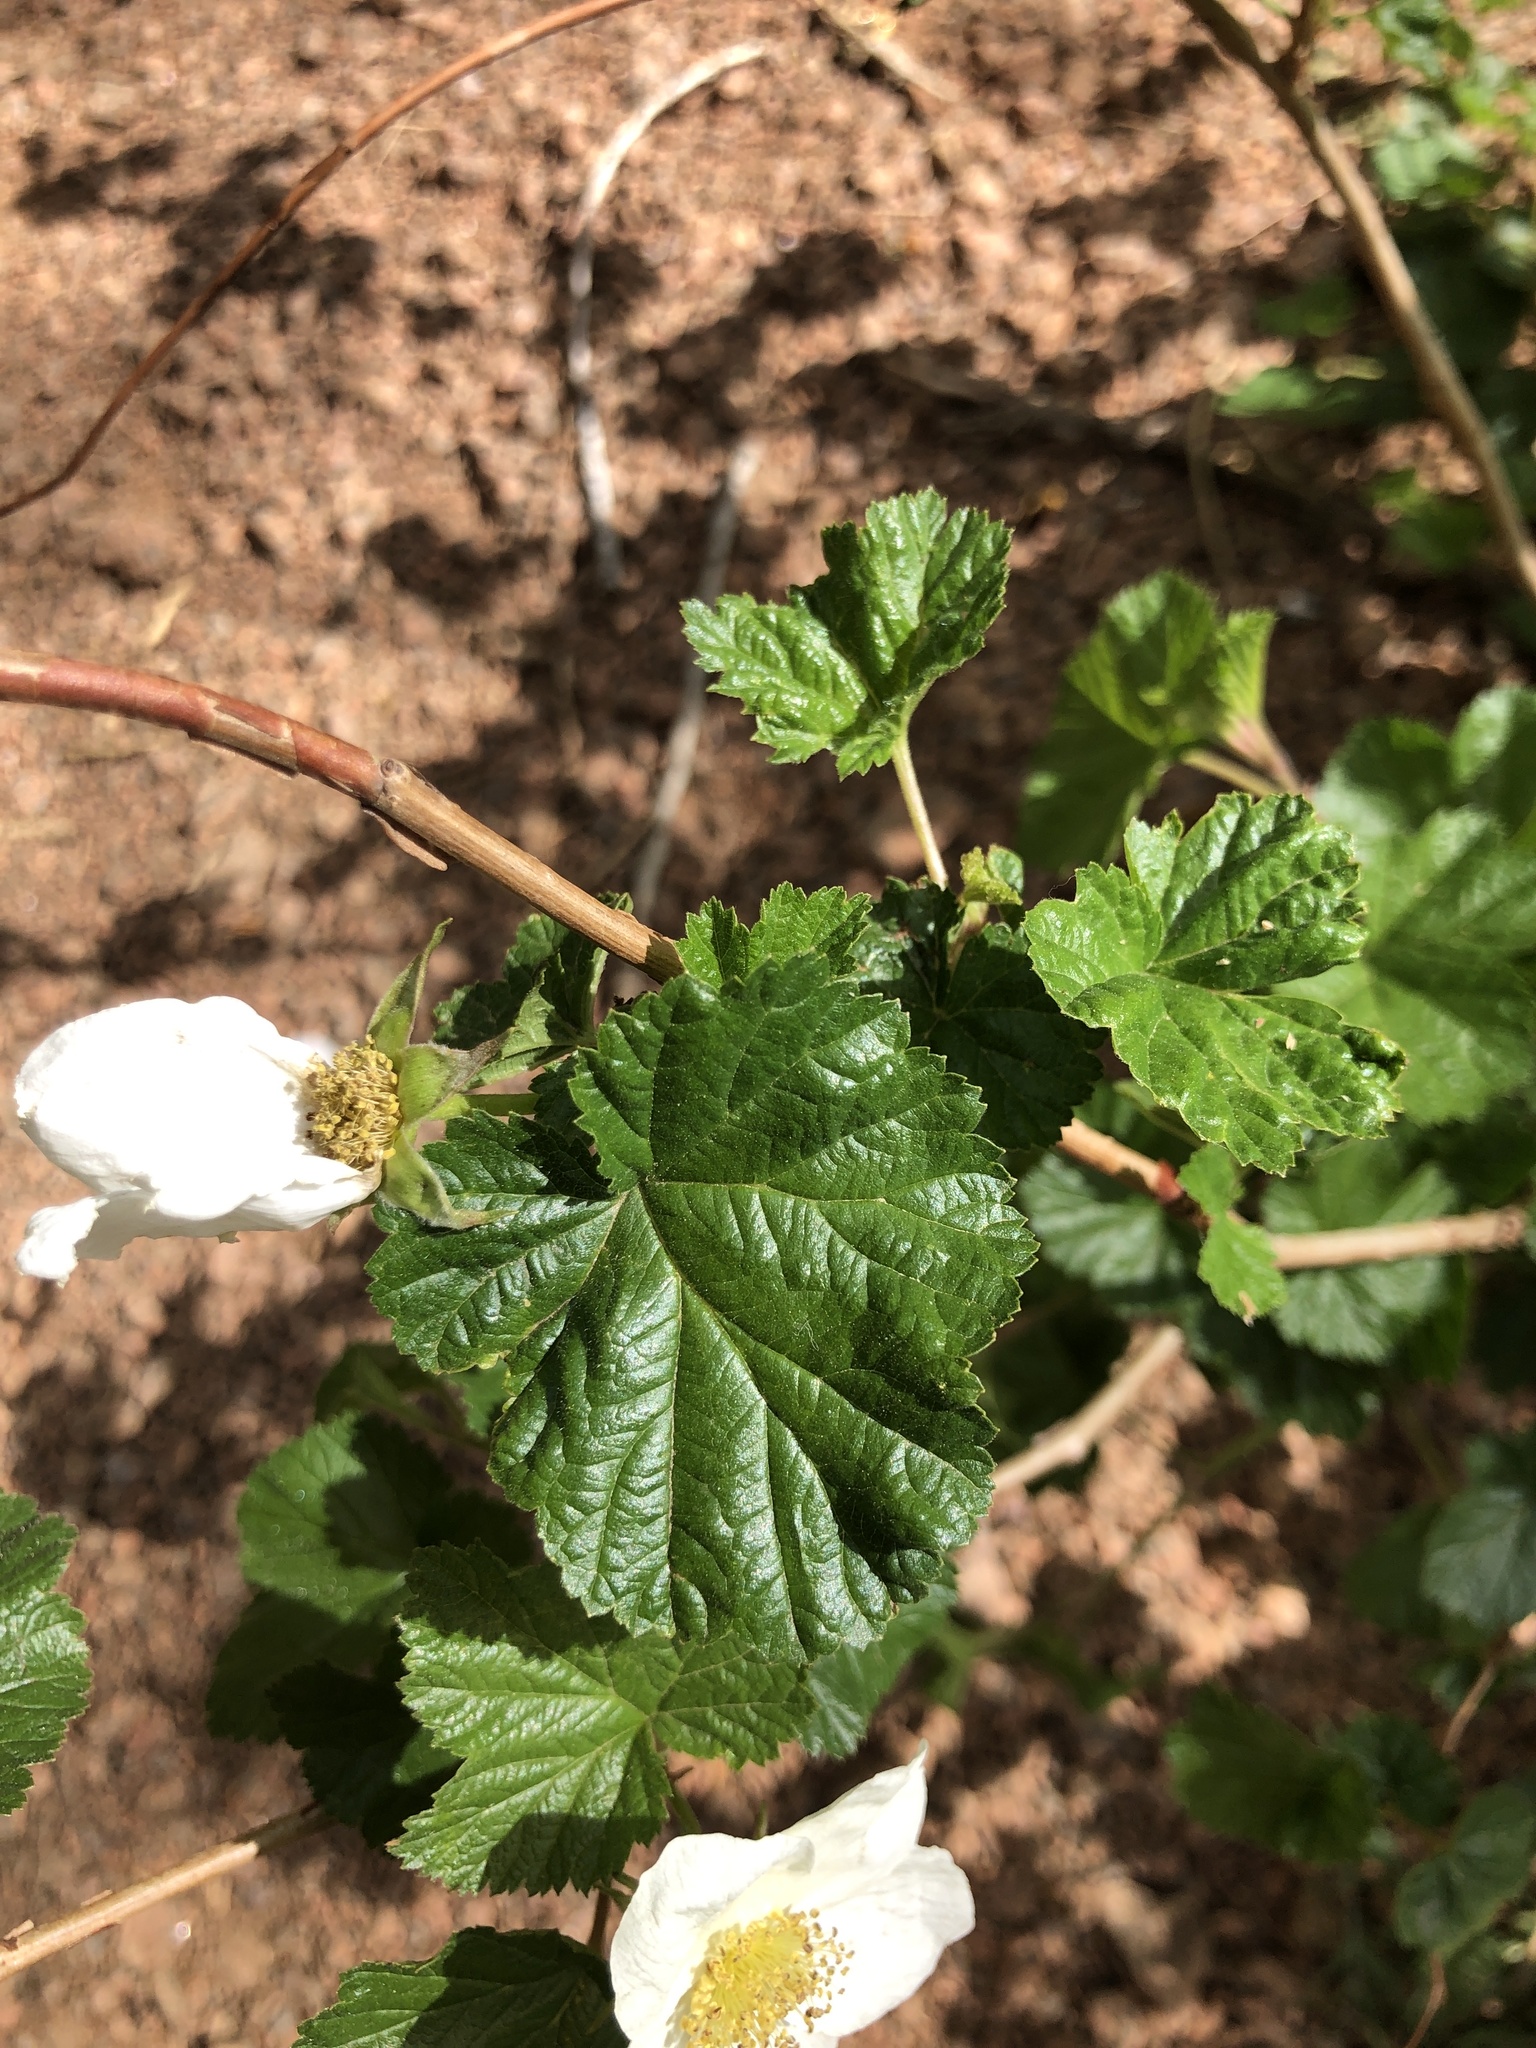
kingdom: Plantae
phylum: Tracheophyta
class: Magnoliopsida
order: Rosales
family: Rosaceae
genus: Rubus
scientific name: Rubus deliciosus
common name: Rocky mountain raspberry
